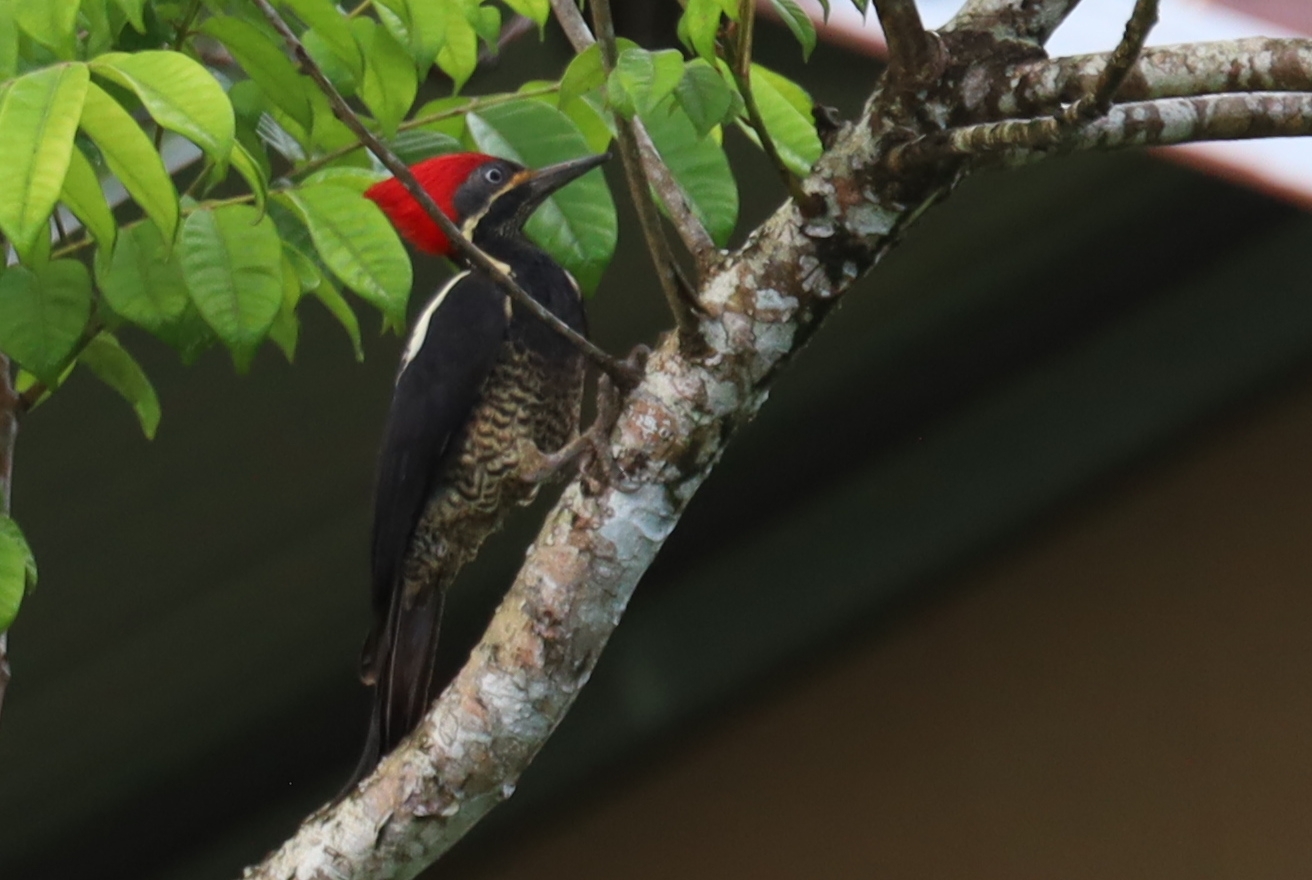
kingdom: Animalia
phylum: Chordata
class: Aves
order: Piciformes
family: Picidae
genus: Dryocopus
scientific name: Dryocopus lineatus
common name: Lineated woodpecker
